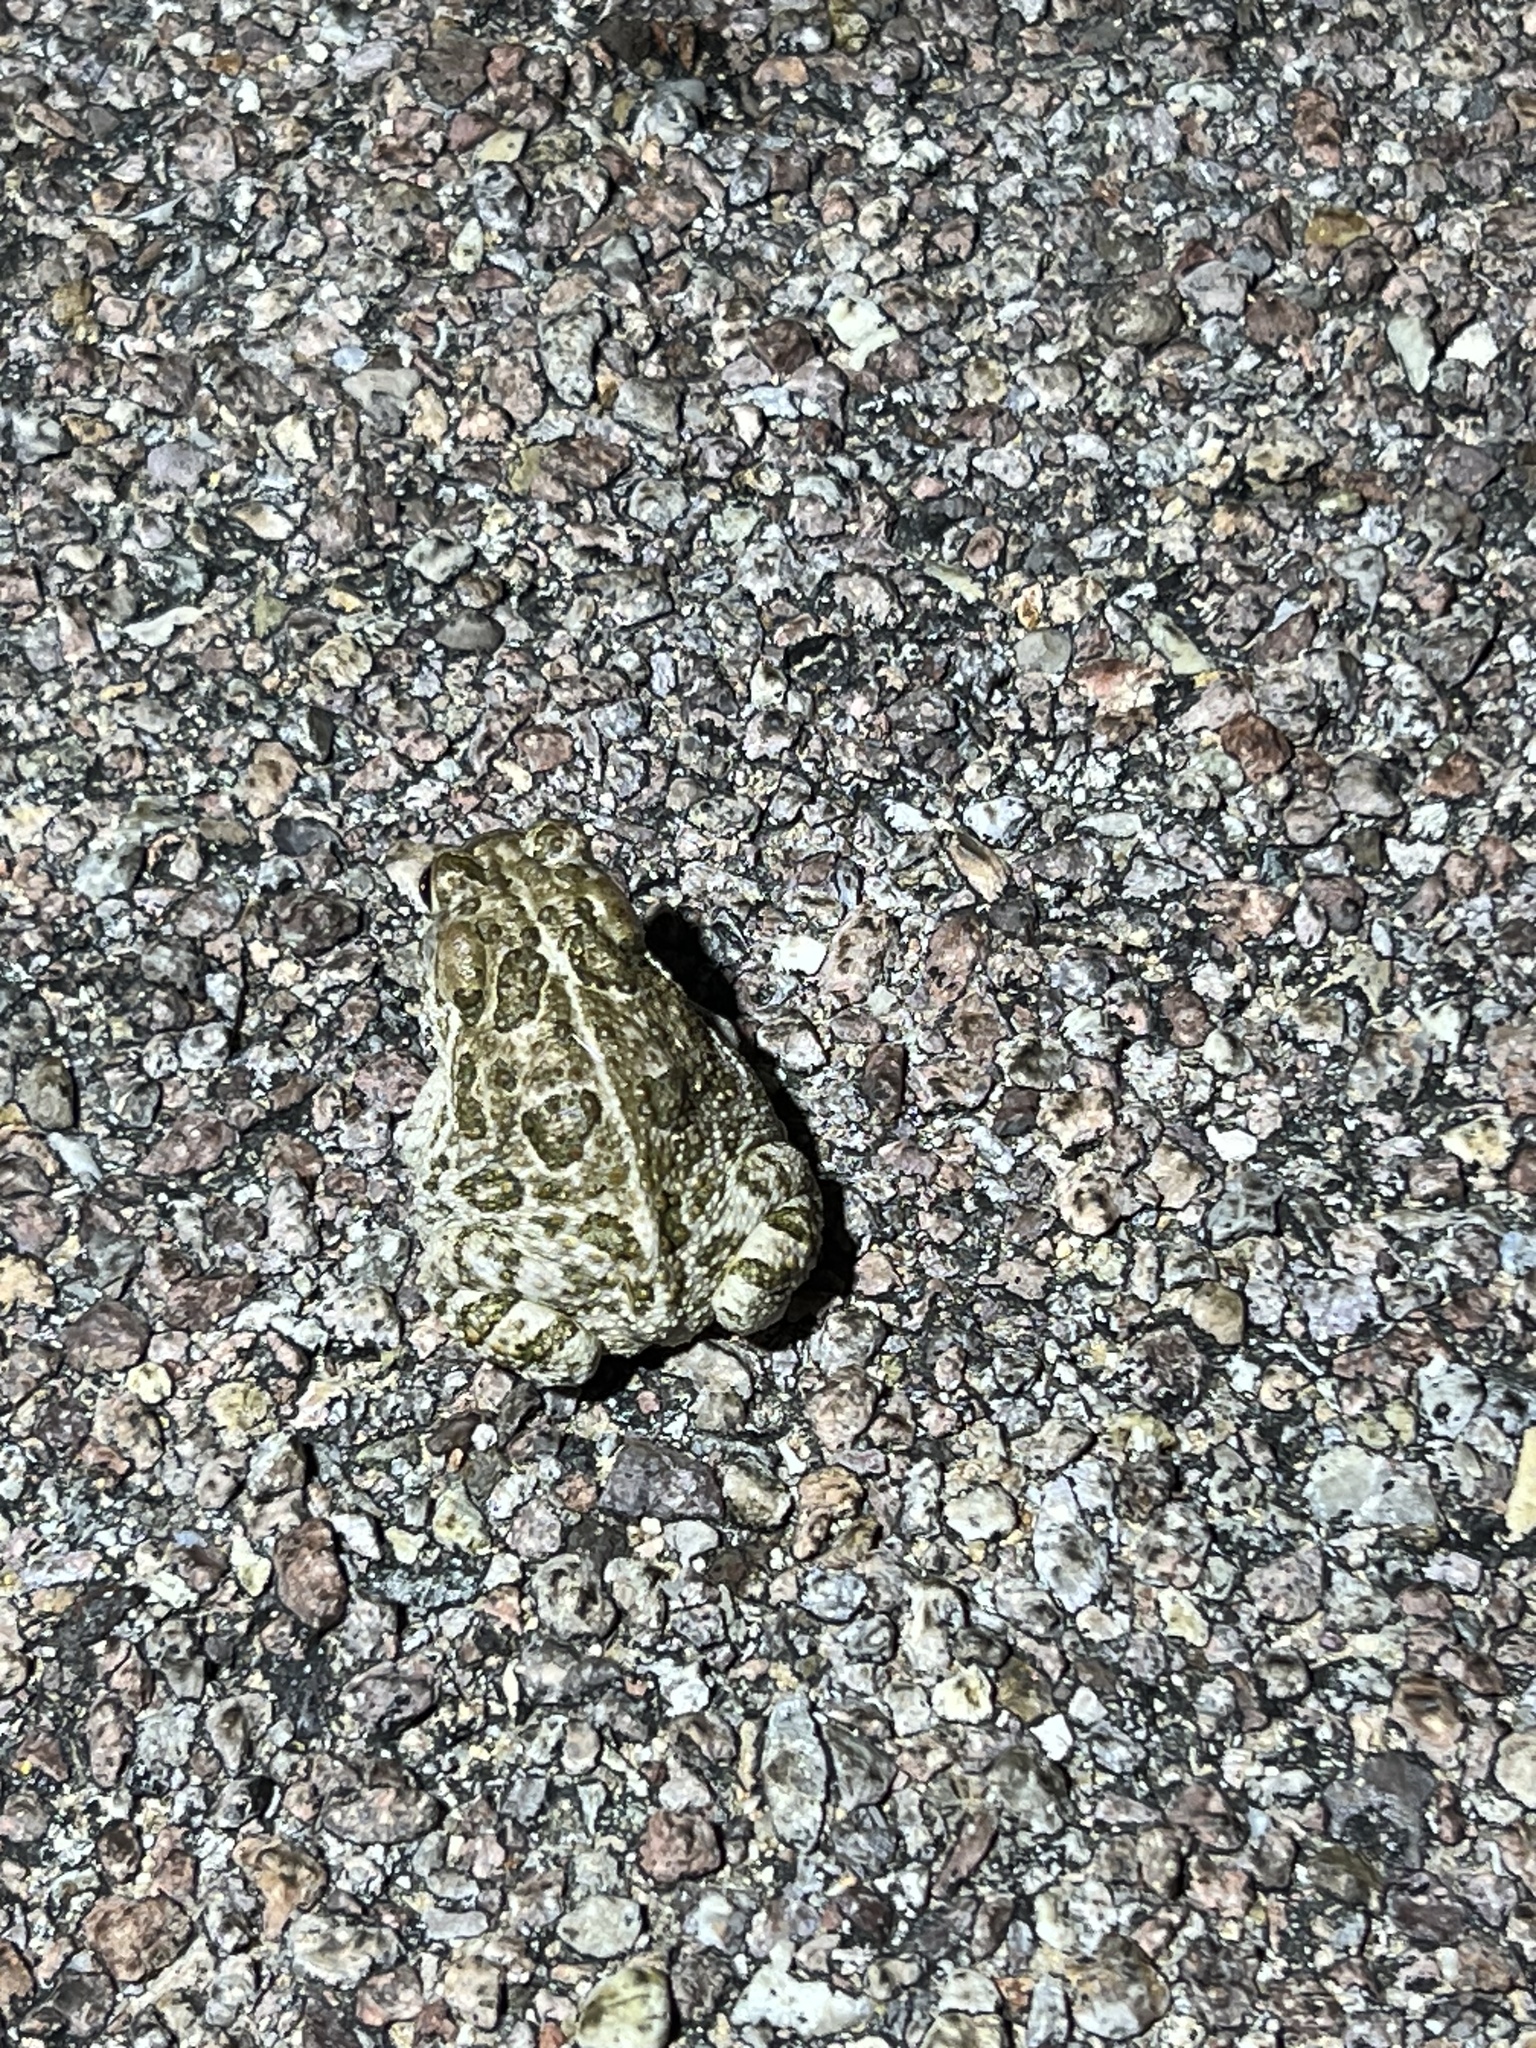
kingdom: Animalia
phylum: Chordata
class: Amphibia
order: Anura
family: Bufonidae
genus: Anaxyrus
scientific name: Anaxyrus cognatus
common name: Great plains toad
